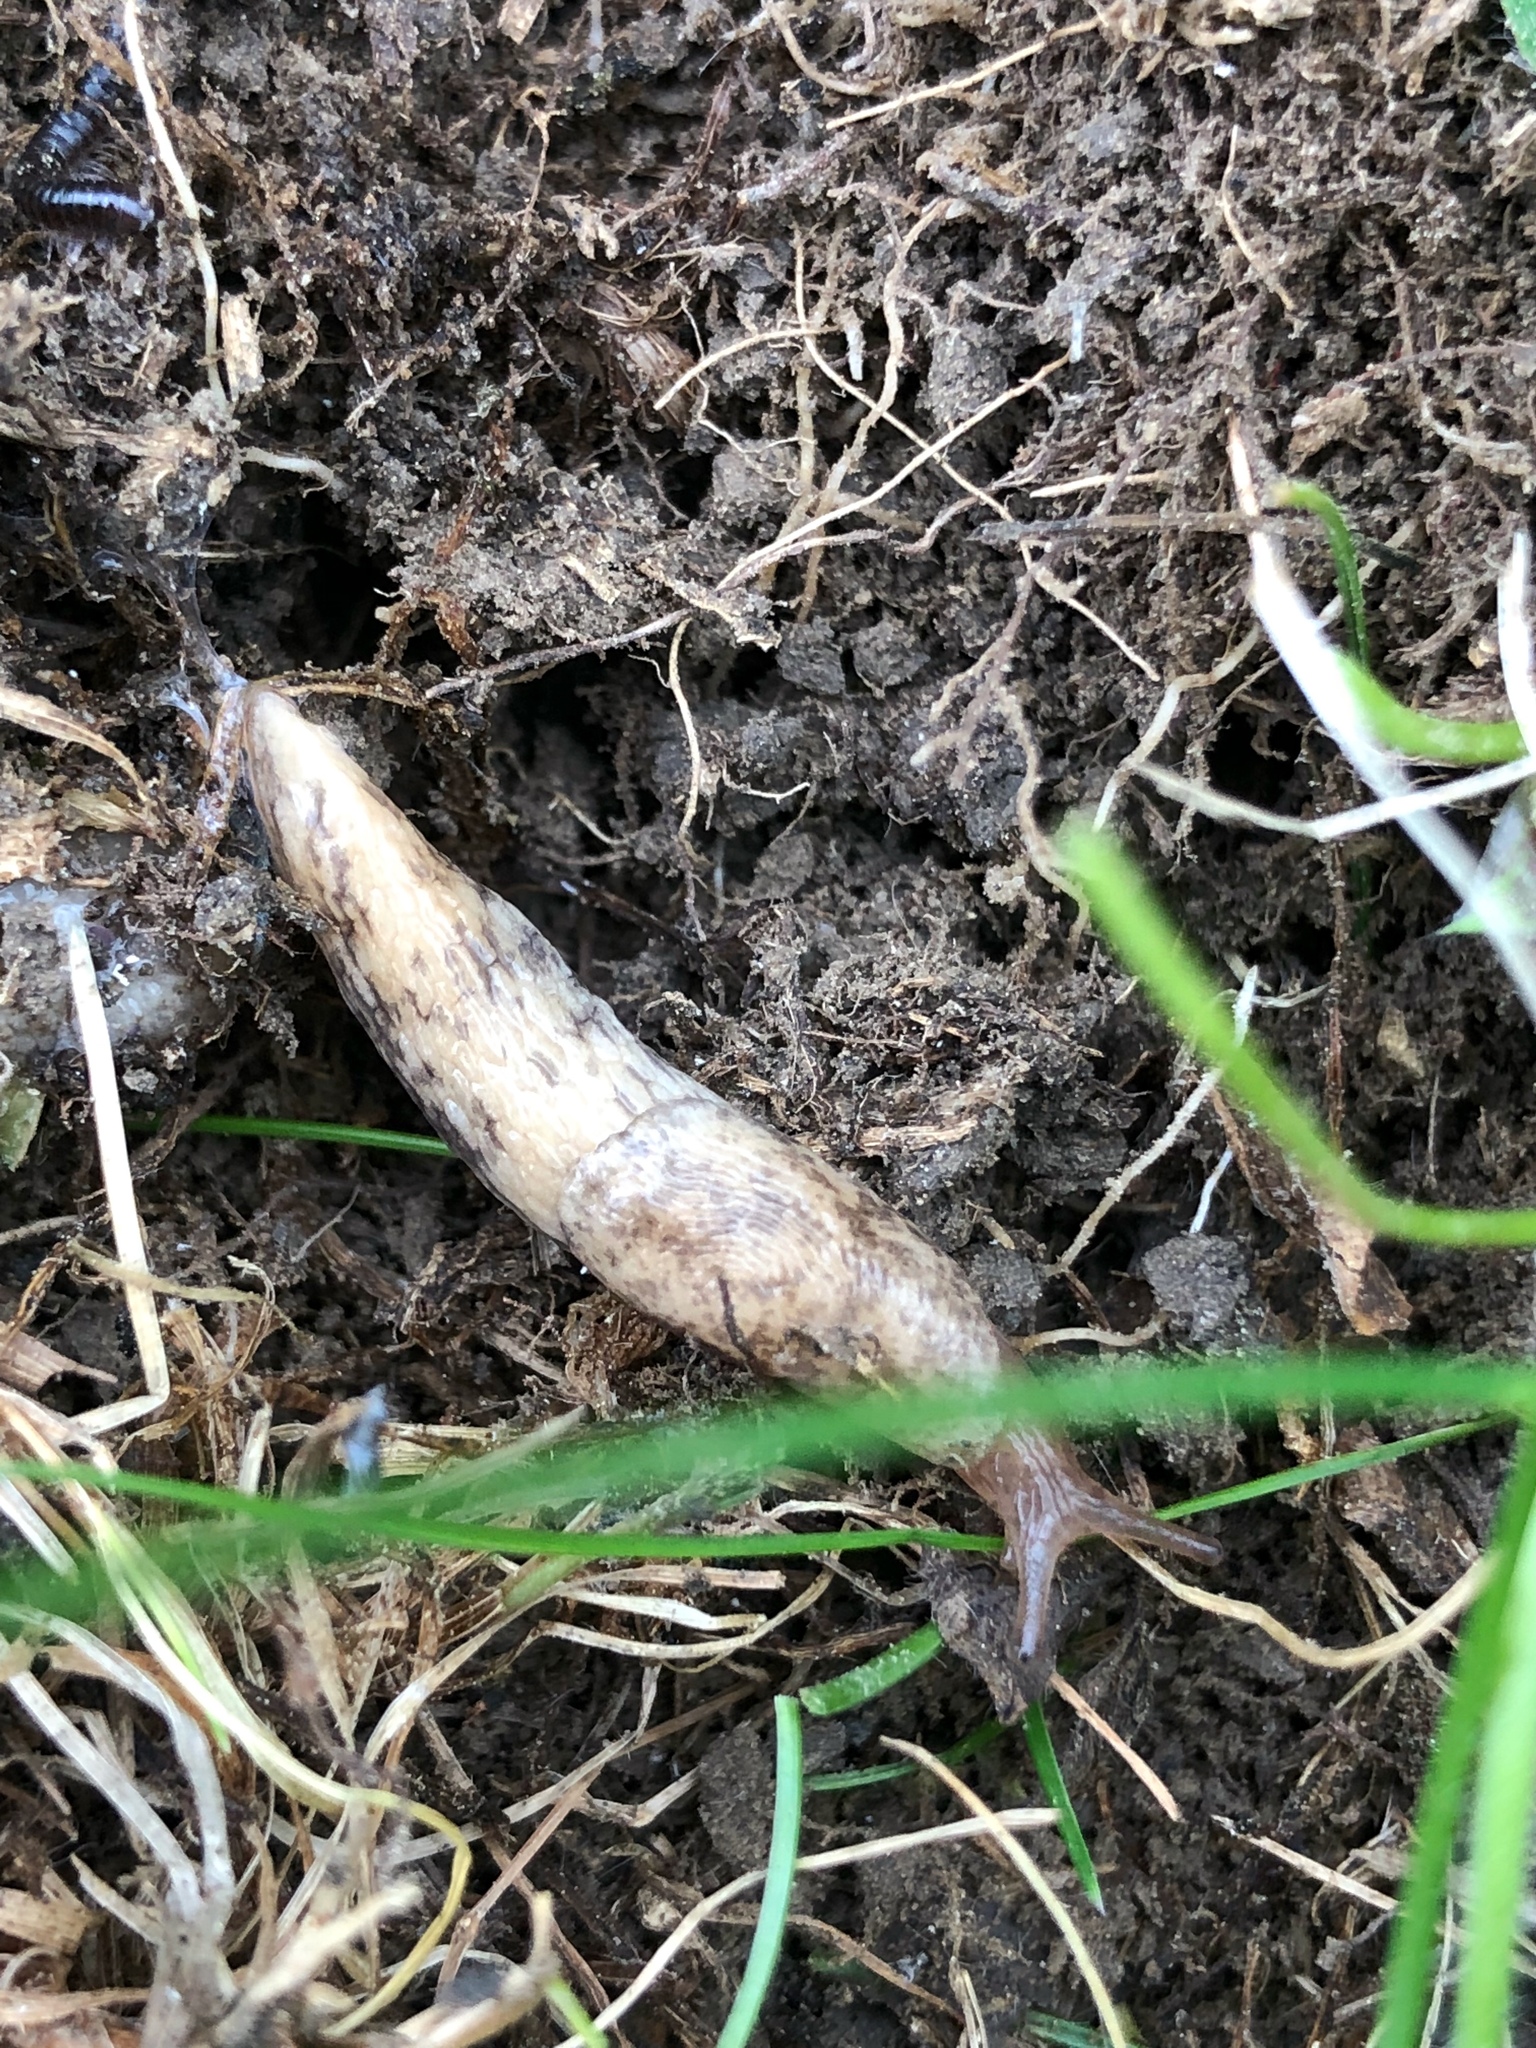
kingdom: Animalia
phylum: Mollusca
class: Gastropoda
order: Stylommatophora
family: Agriolimacidae
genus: Deroceras
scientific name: Deroceras reticulatum
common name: Gray field slug
